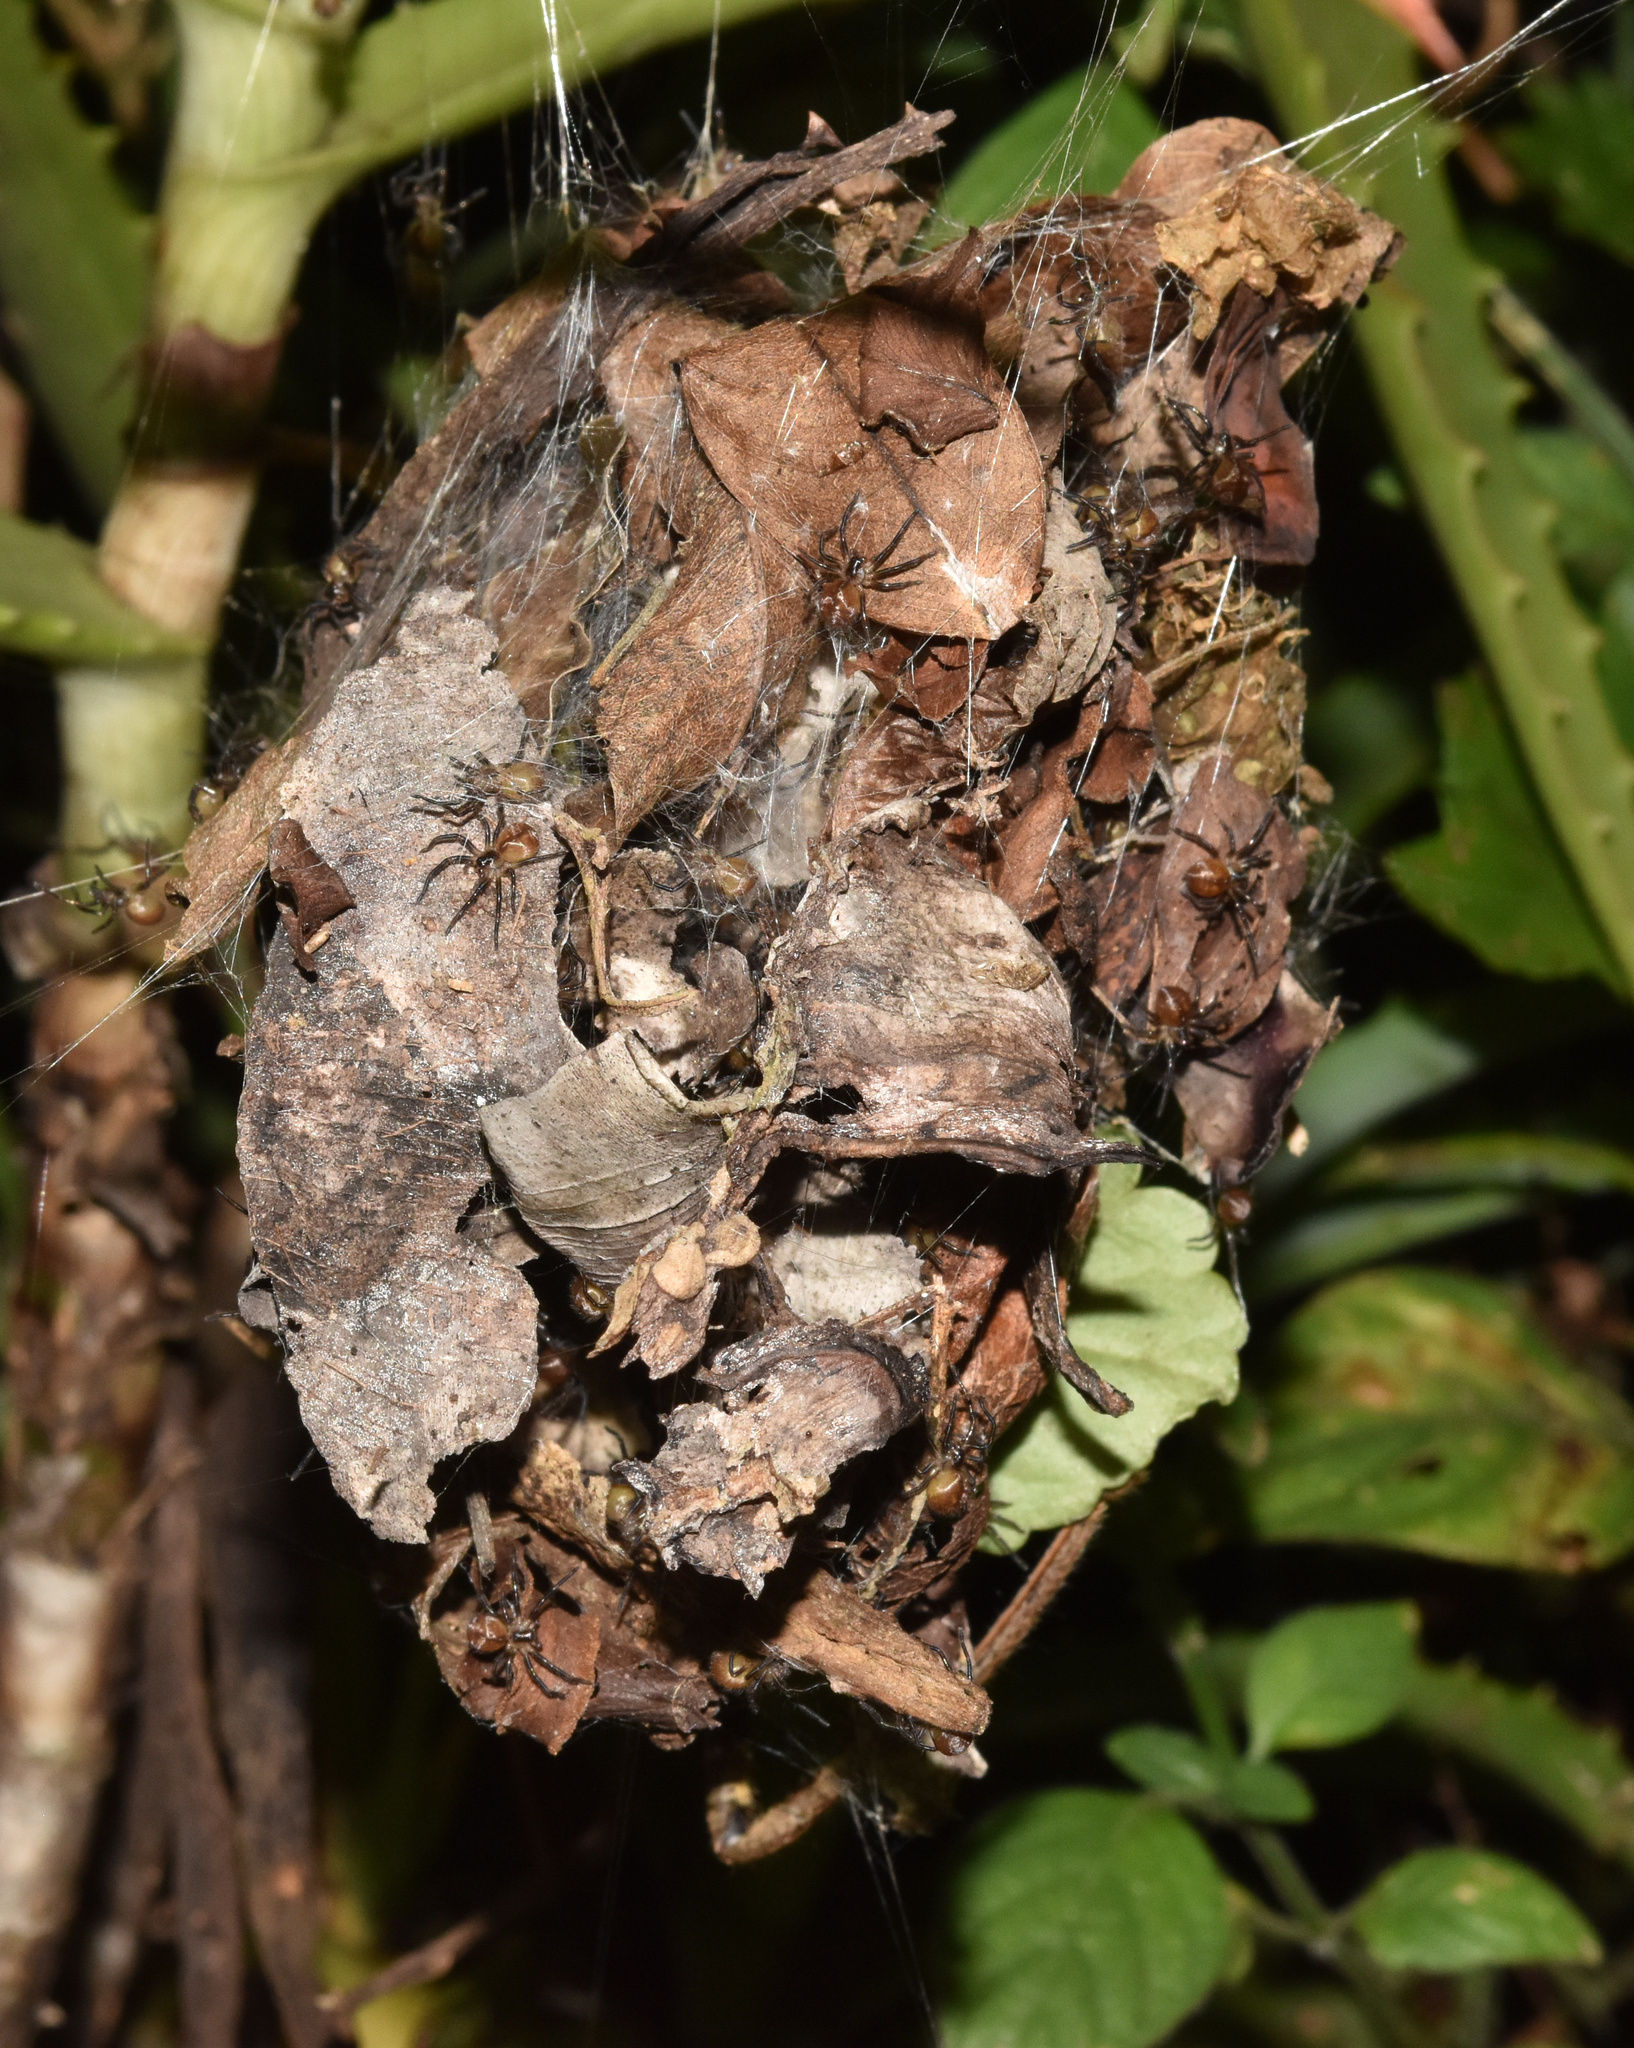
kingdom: Animalia
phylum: Arthropoda
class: Arachnida
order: Araneae
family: Sparassidae
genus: Palystes
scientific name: Palystes superciliosus
